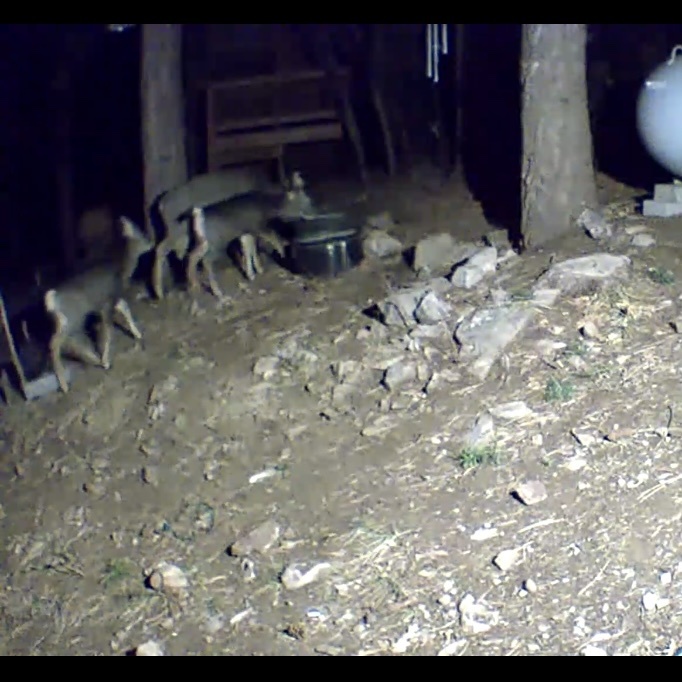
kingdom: Animalia
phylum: Chordata
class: Mammalia
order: Artiodactyla
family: Cervidae
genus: Odocoileus
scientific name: Odocoileus hemionus
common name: Mule deer
